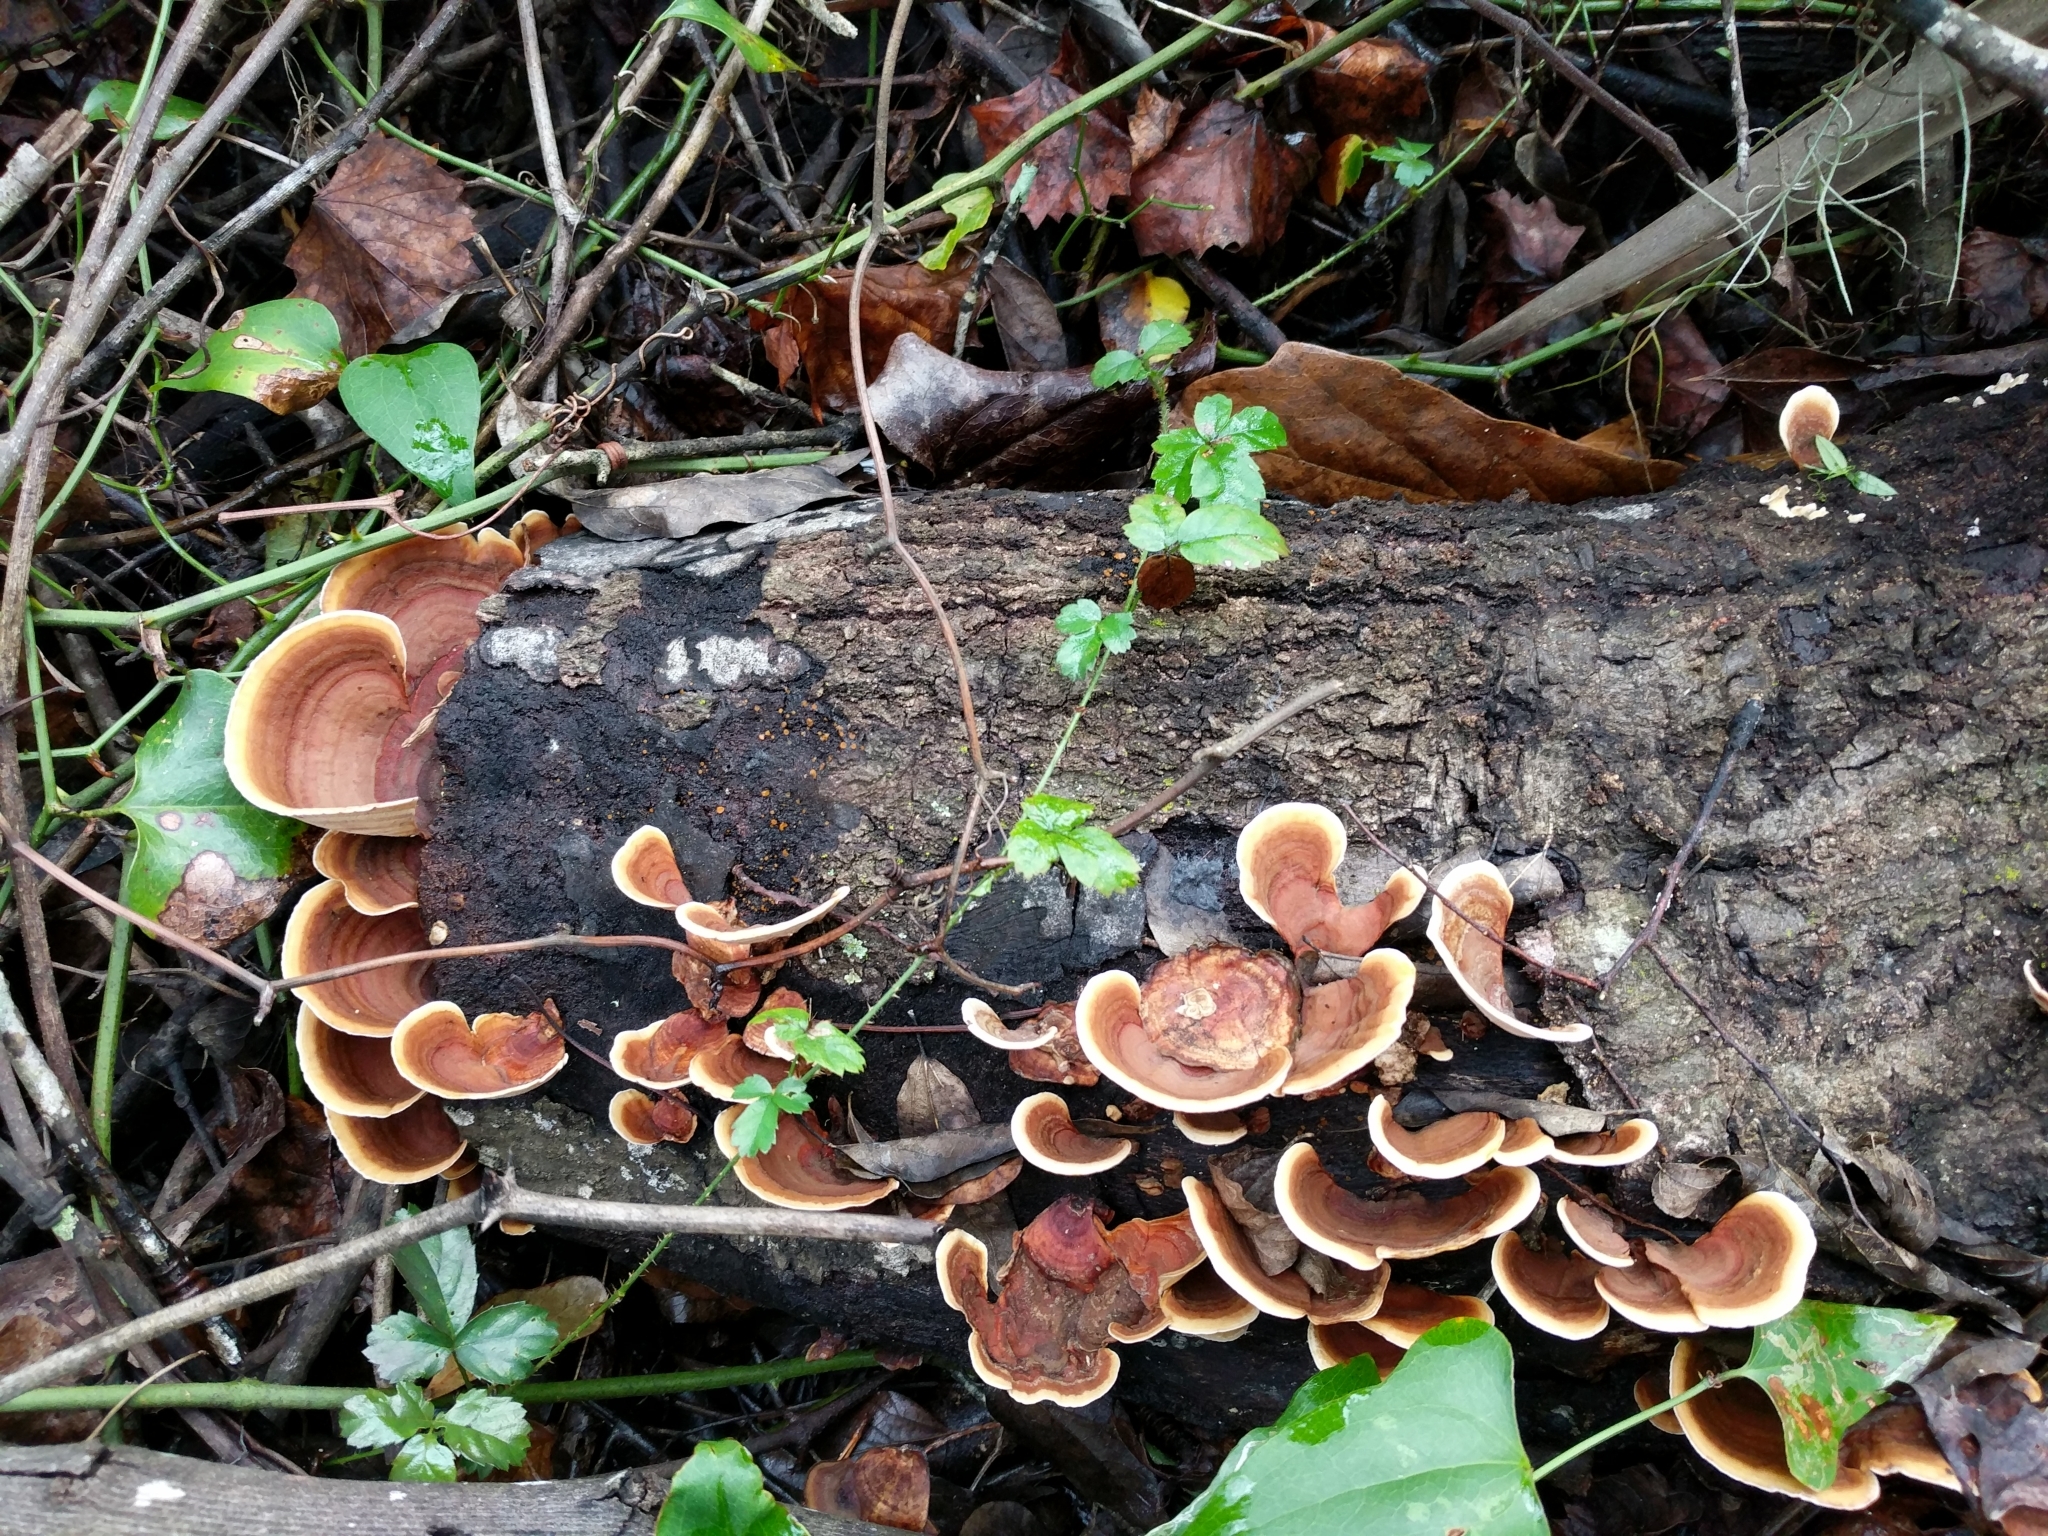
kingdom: Fungi
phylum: Basidiomycota
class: Agaricomycetes
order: Russulales
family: Stereaceae
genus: Stereum
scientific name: Stereum ostrea
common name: False turkeytail
